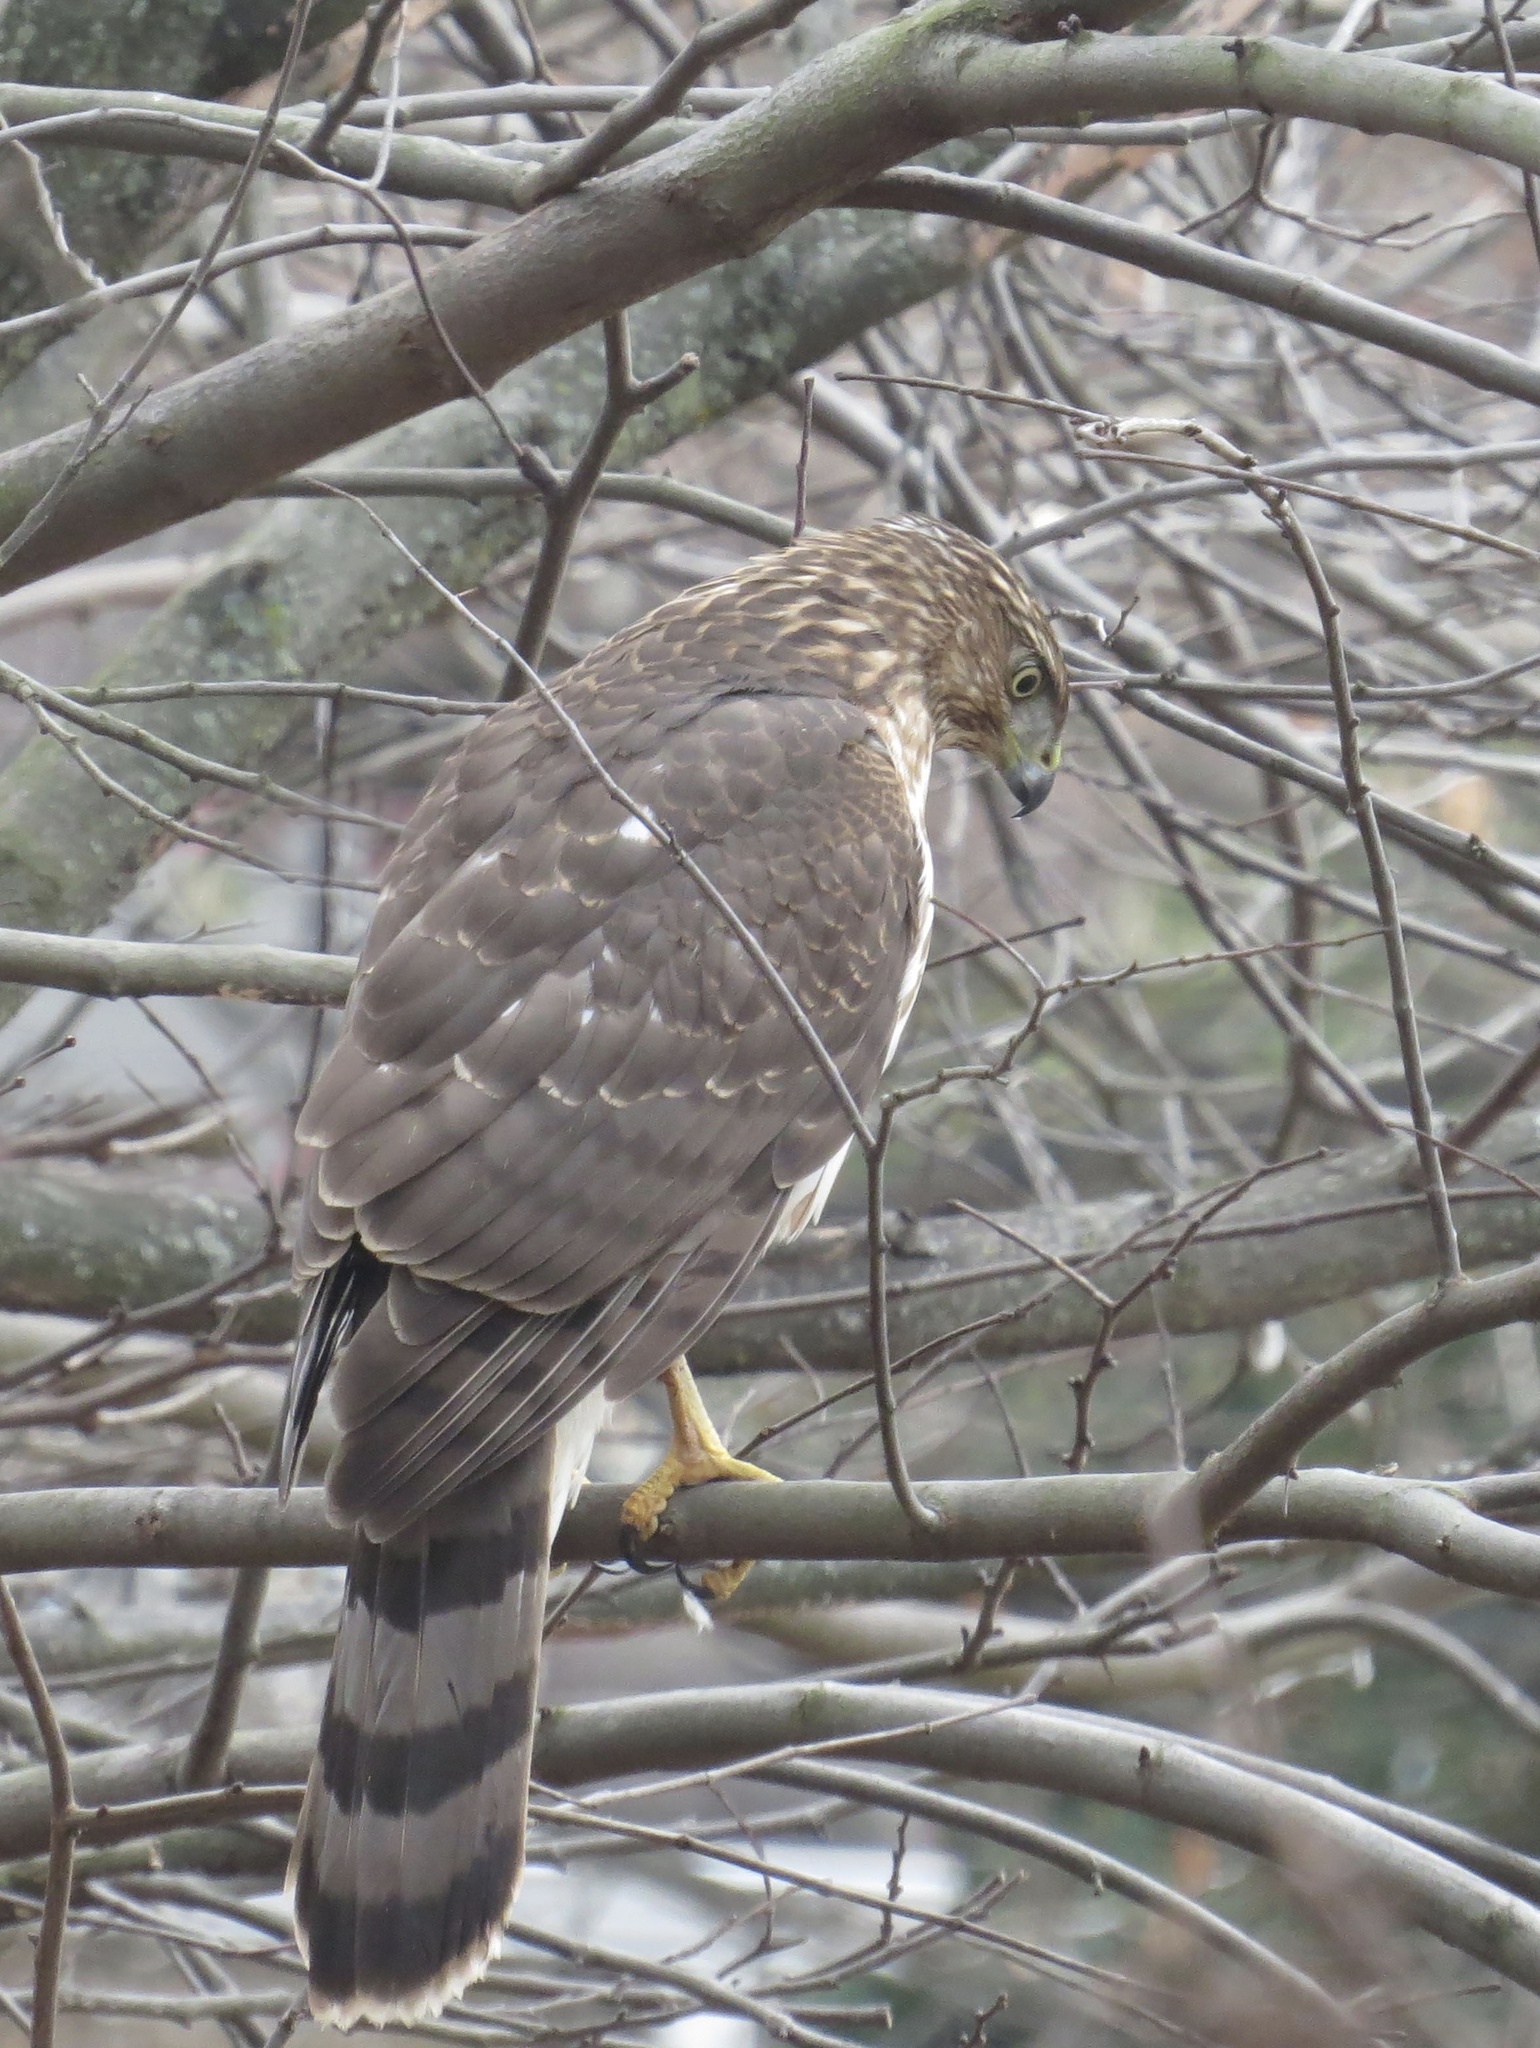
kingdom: Animalia
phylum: Chordata
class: Aves
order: Accipitriformes
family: Accipitridae
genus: Accipiter
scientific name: Accipiter cooperii
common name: Cooper's hawk
